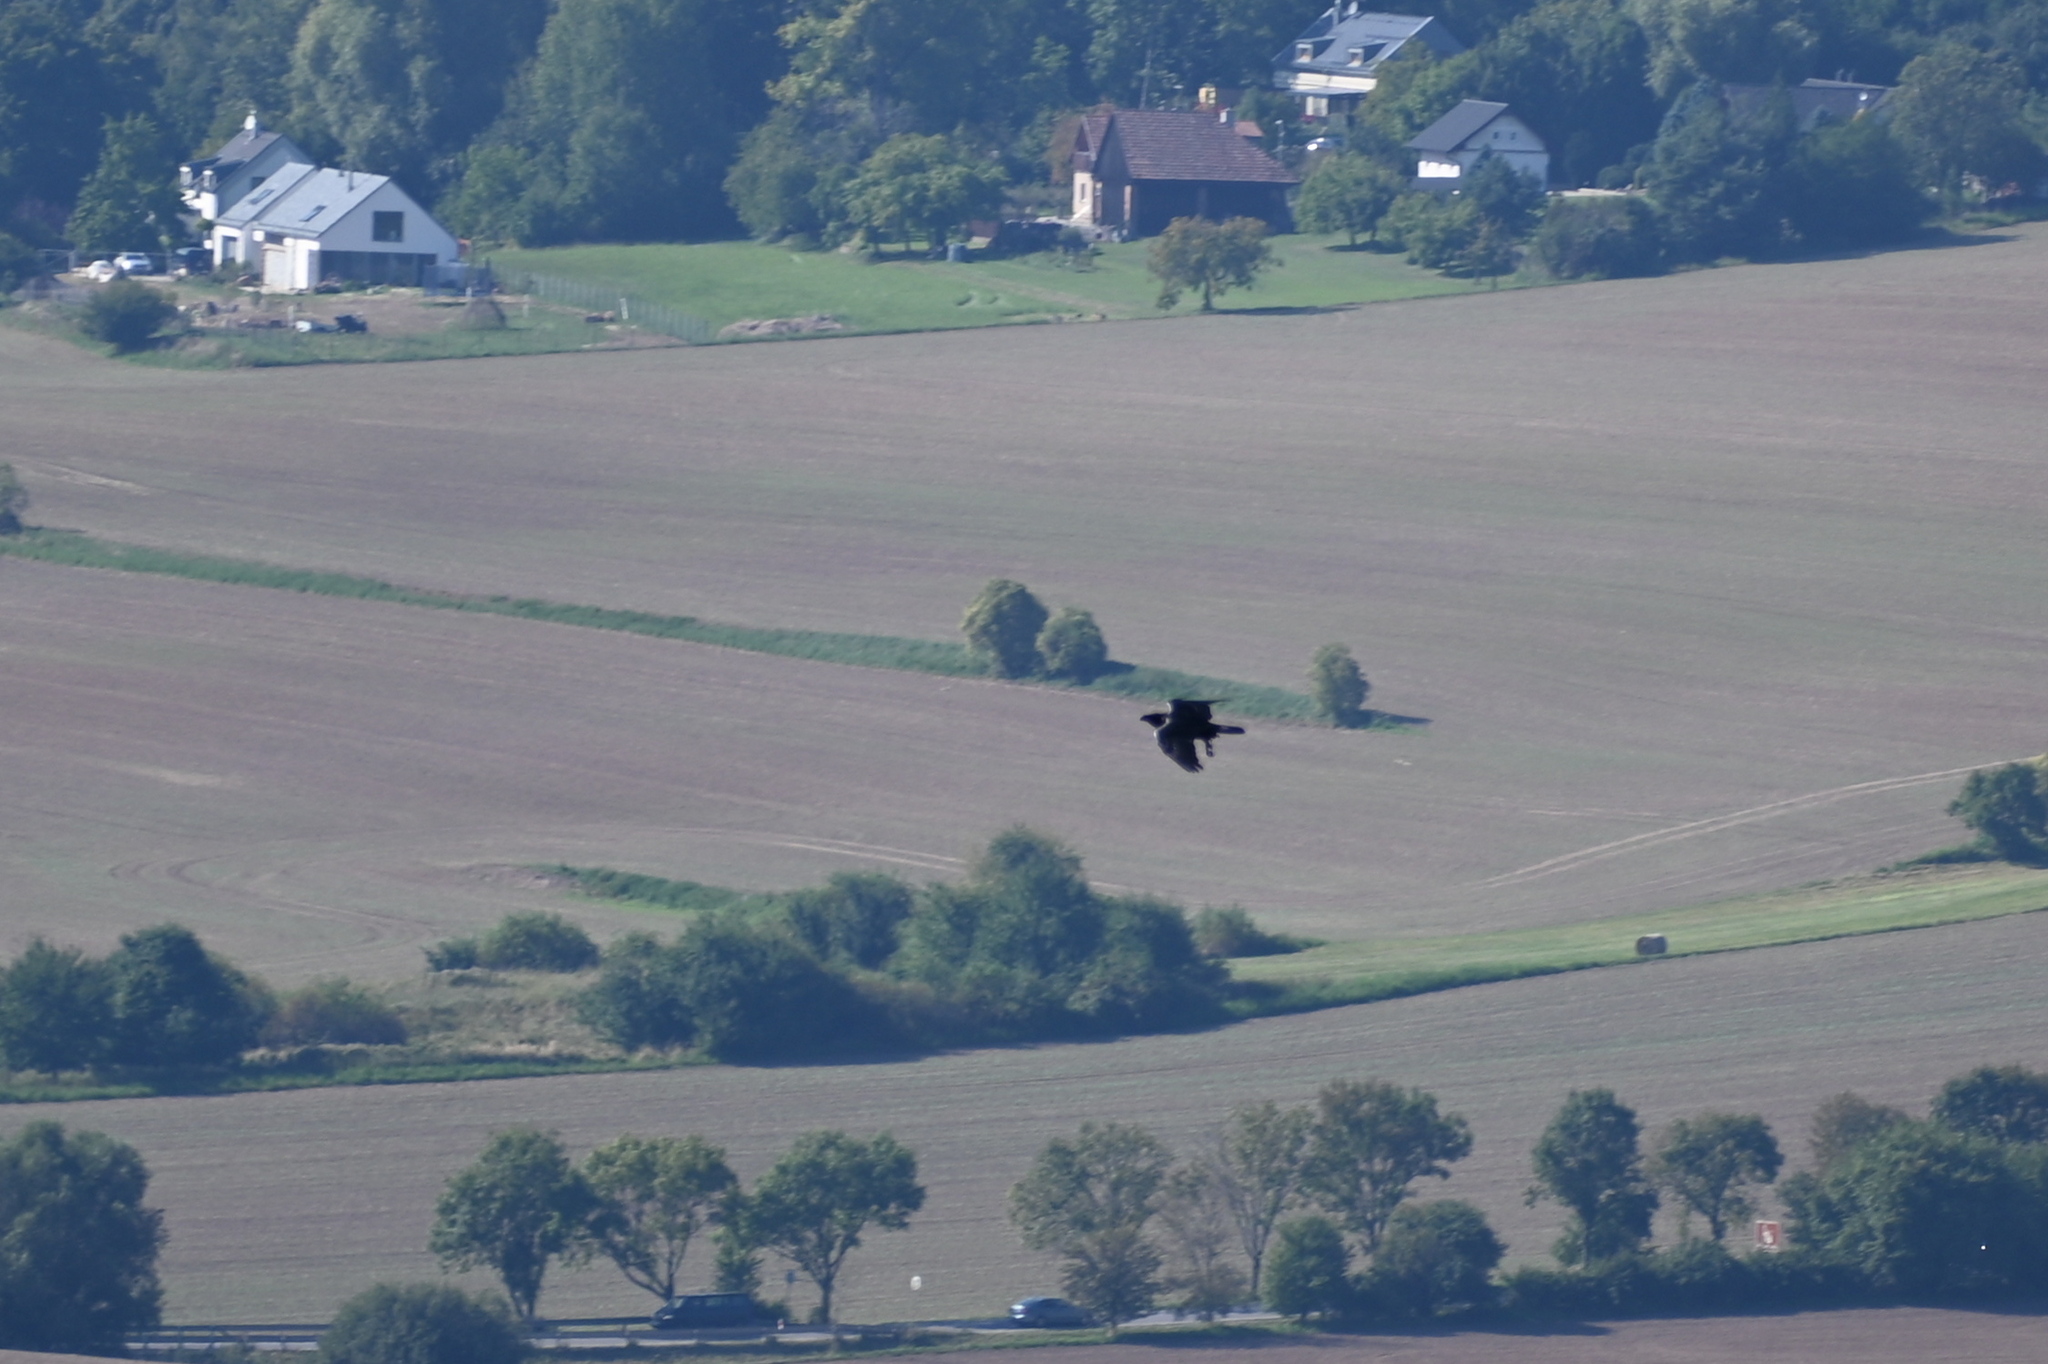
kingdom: Animalia
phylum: Chordata
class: Aves
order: Passeriformes
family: Corvidae
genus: Corvus
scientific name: Corvus corax
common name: Common raven
